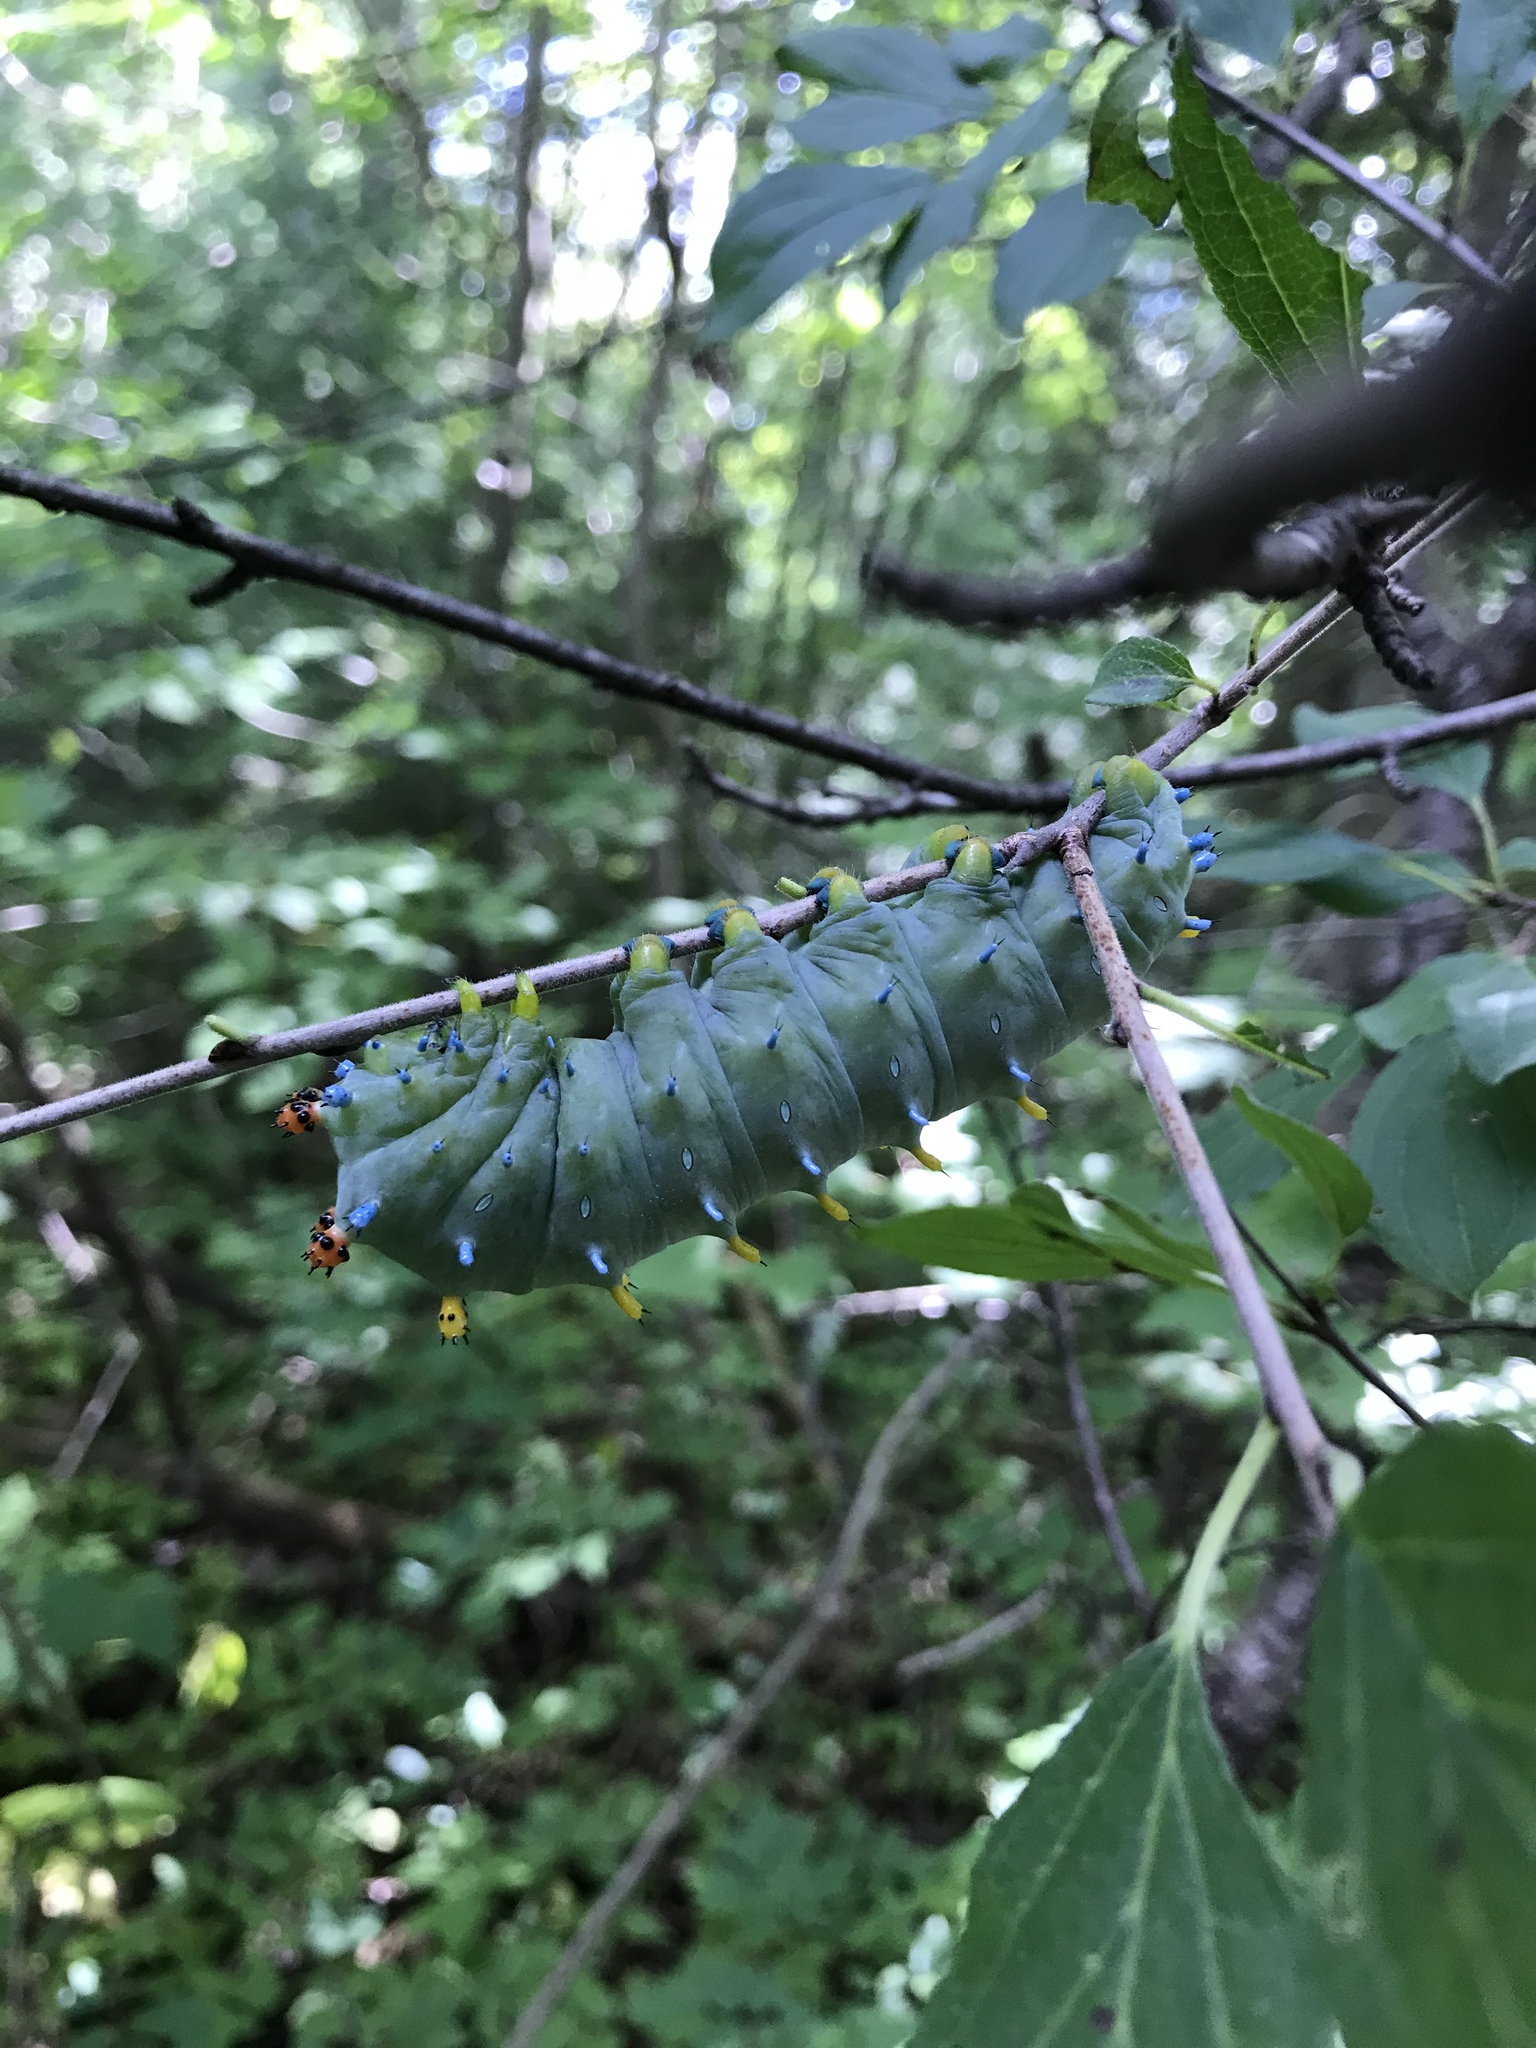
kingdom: Animalia
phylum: Arthropoda
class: Insecta
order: Lepidoptera
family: Saturniidae
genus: Hyalophora
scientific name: Hyalophora cecropia
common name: Cecropia silkmoth
